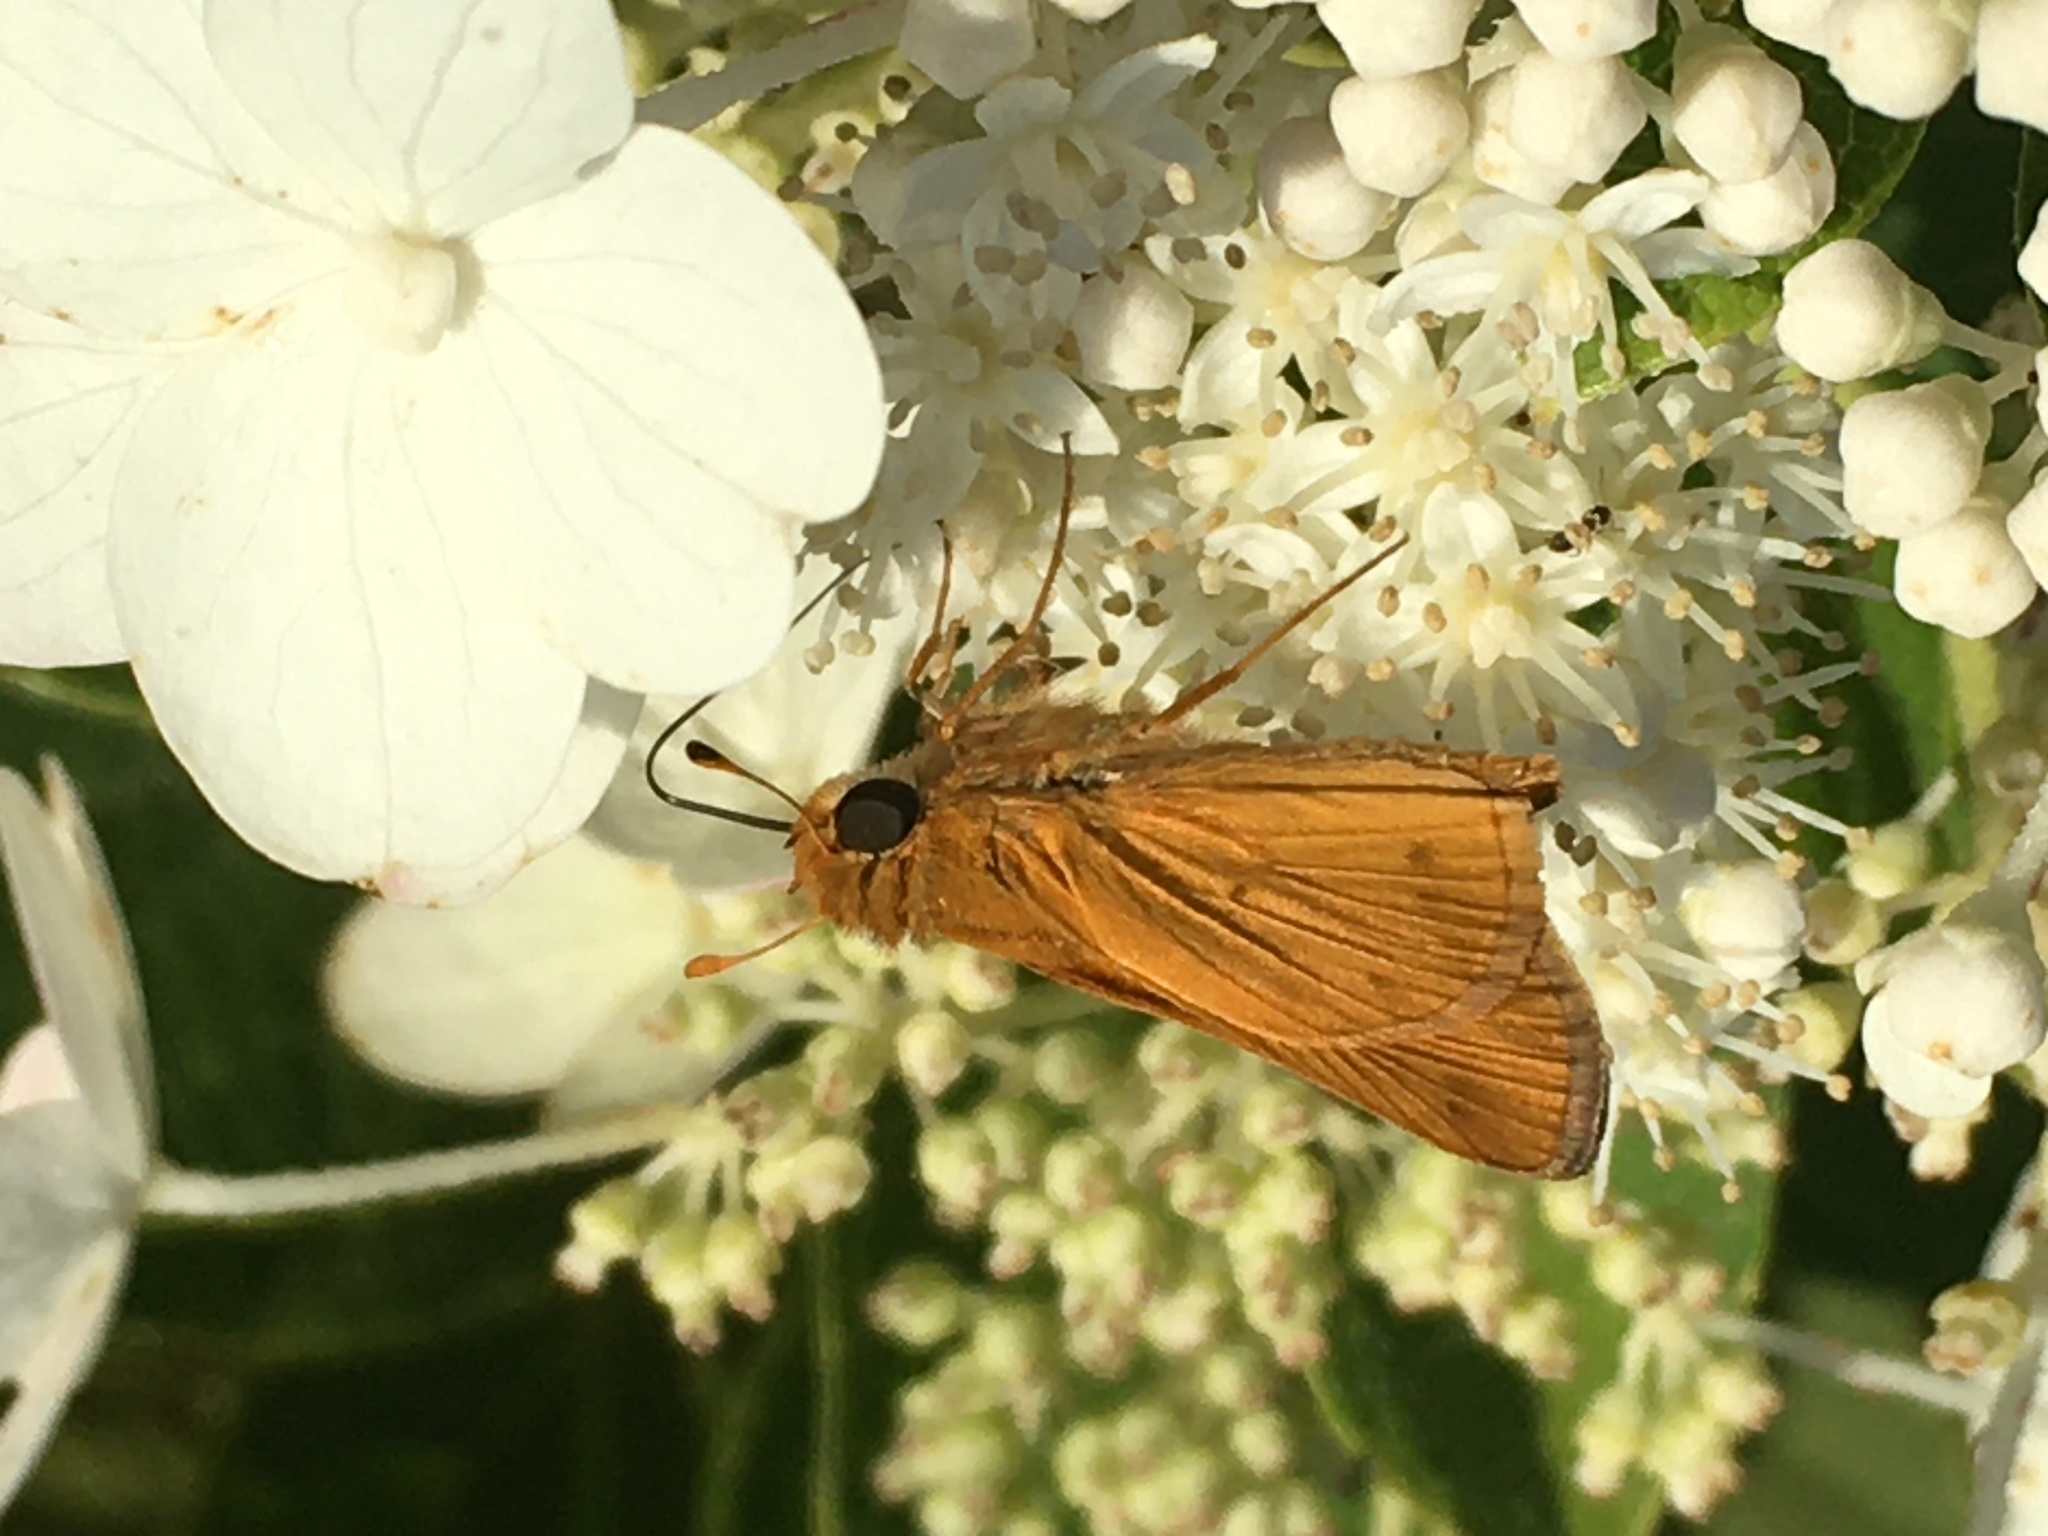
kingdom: Animalia
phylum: Arthropoda
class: Insecta
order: Lepidoptera
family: Hesperiidae
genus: Hylephila
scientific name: Hylephila phyleus
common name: Fiery skipper
